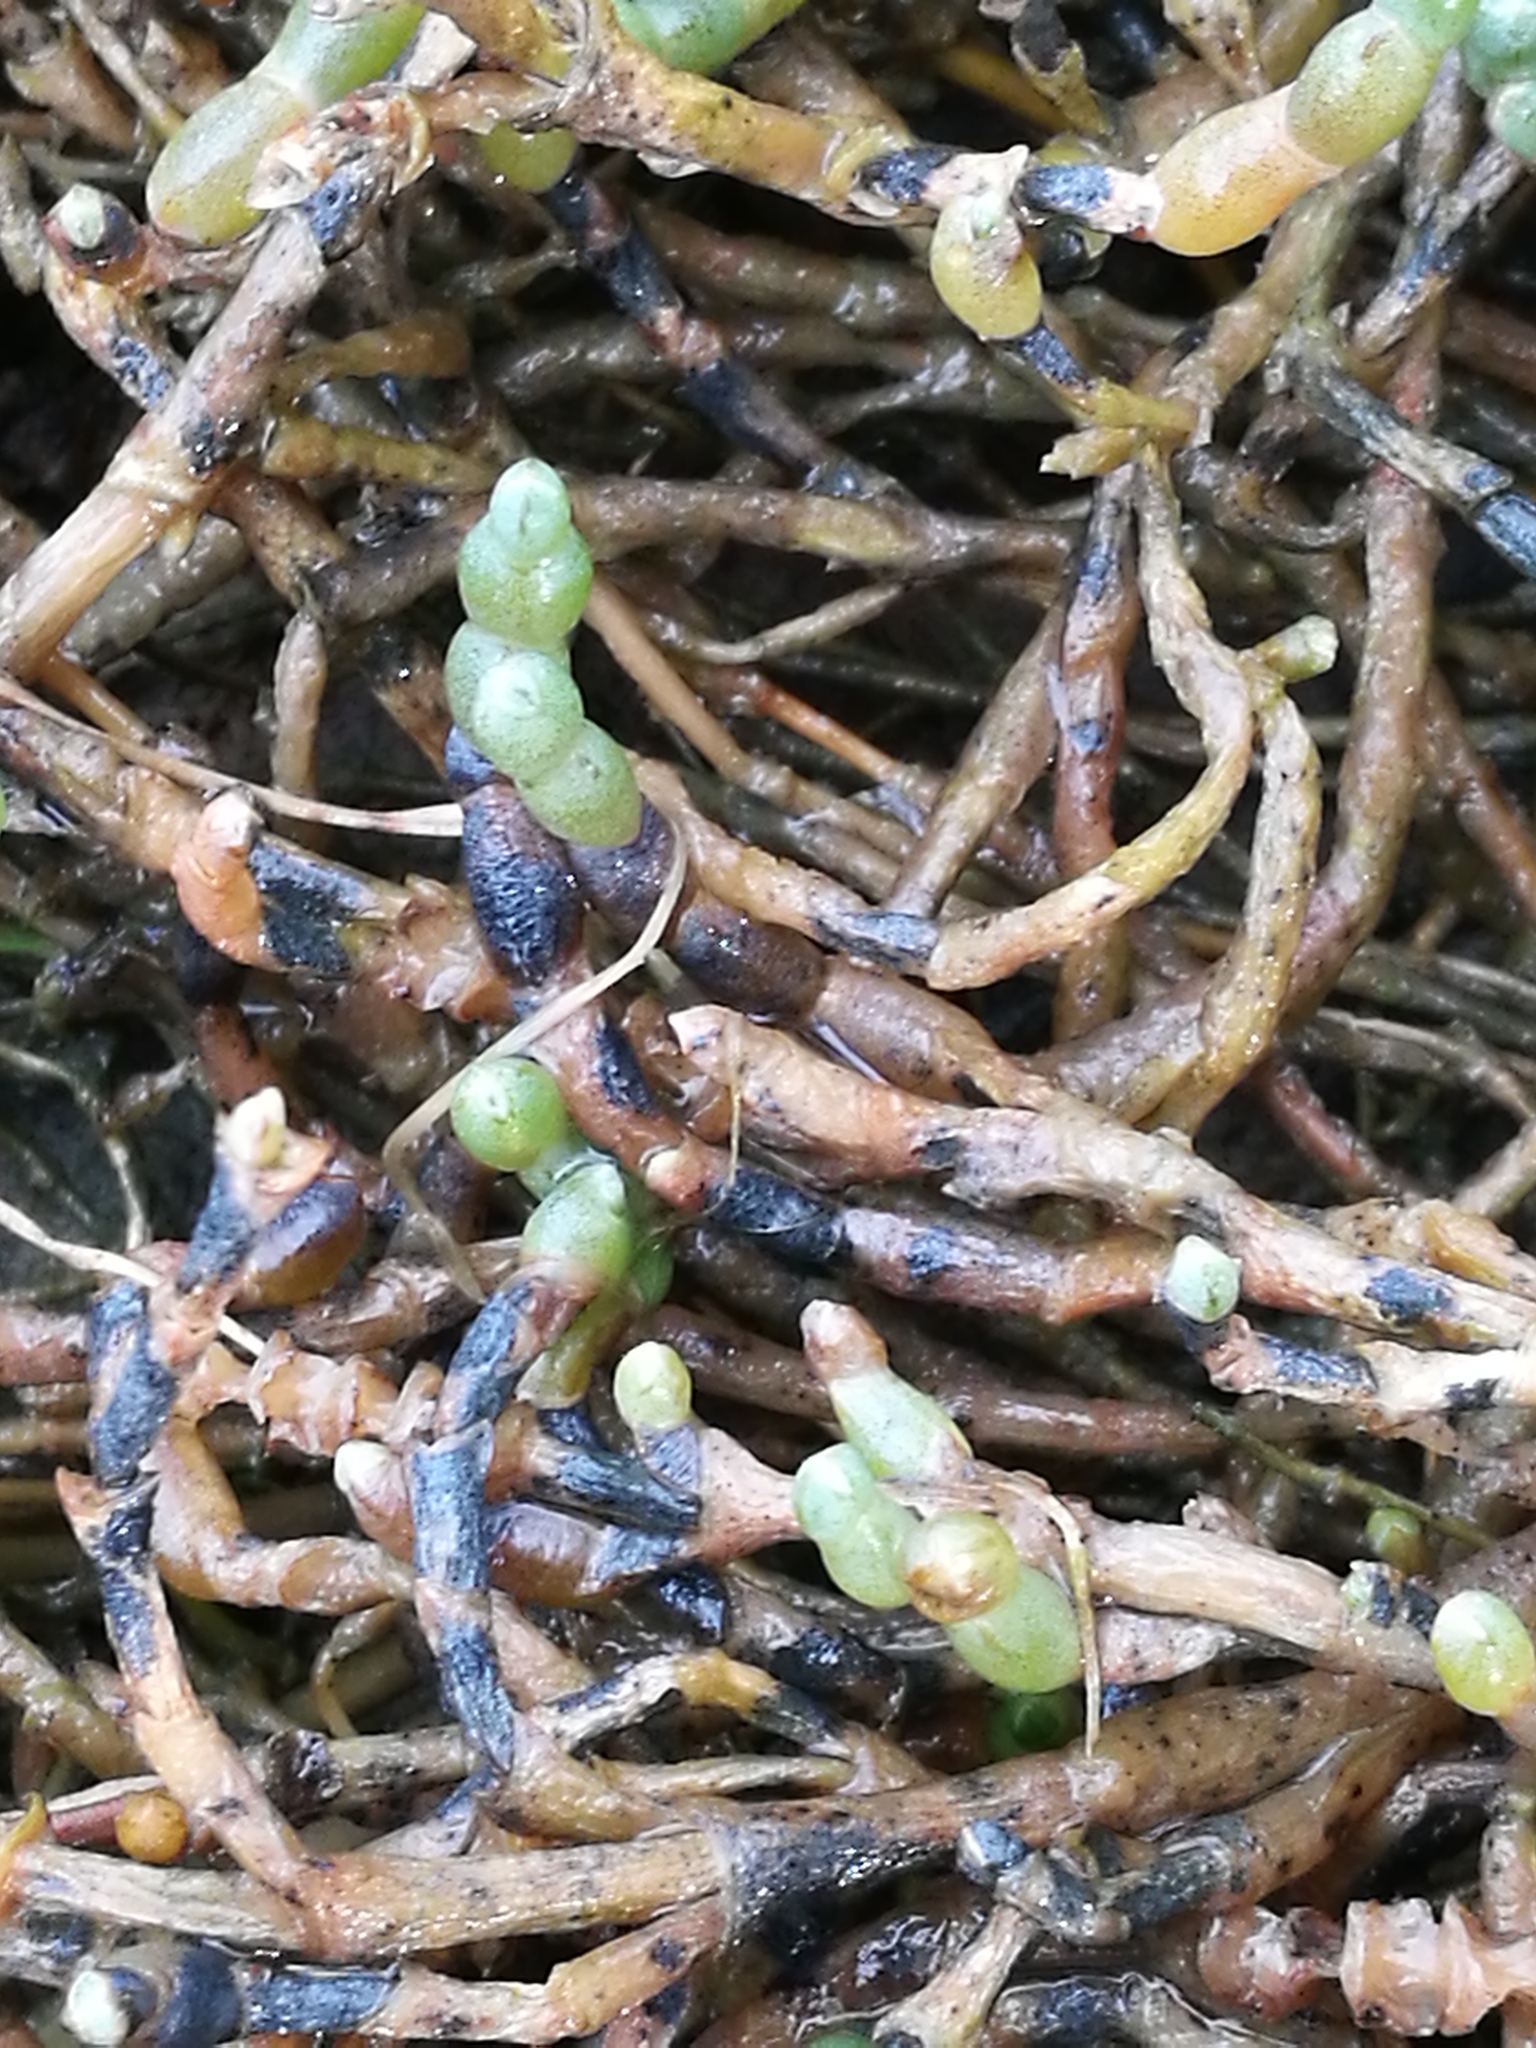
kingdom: Plantae
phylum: Tracheophyta
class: Magnoliopsida
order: Caryophyllales
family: Amaranthaceae
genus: Salicornia
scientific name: Salicornia quinqueflora
